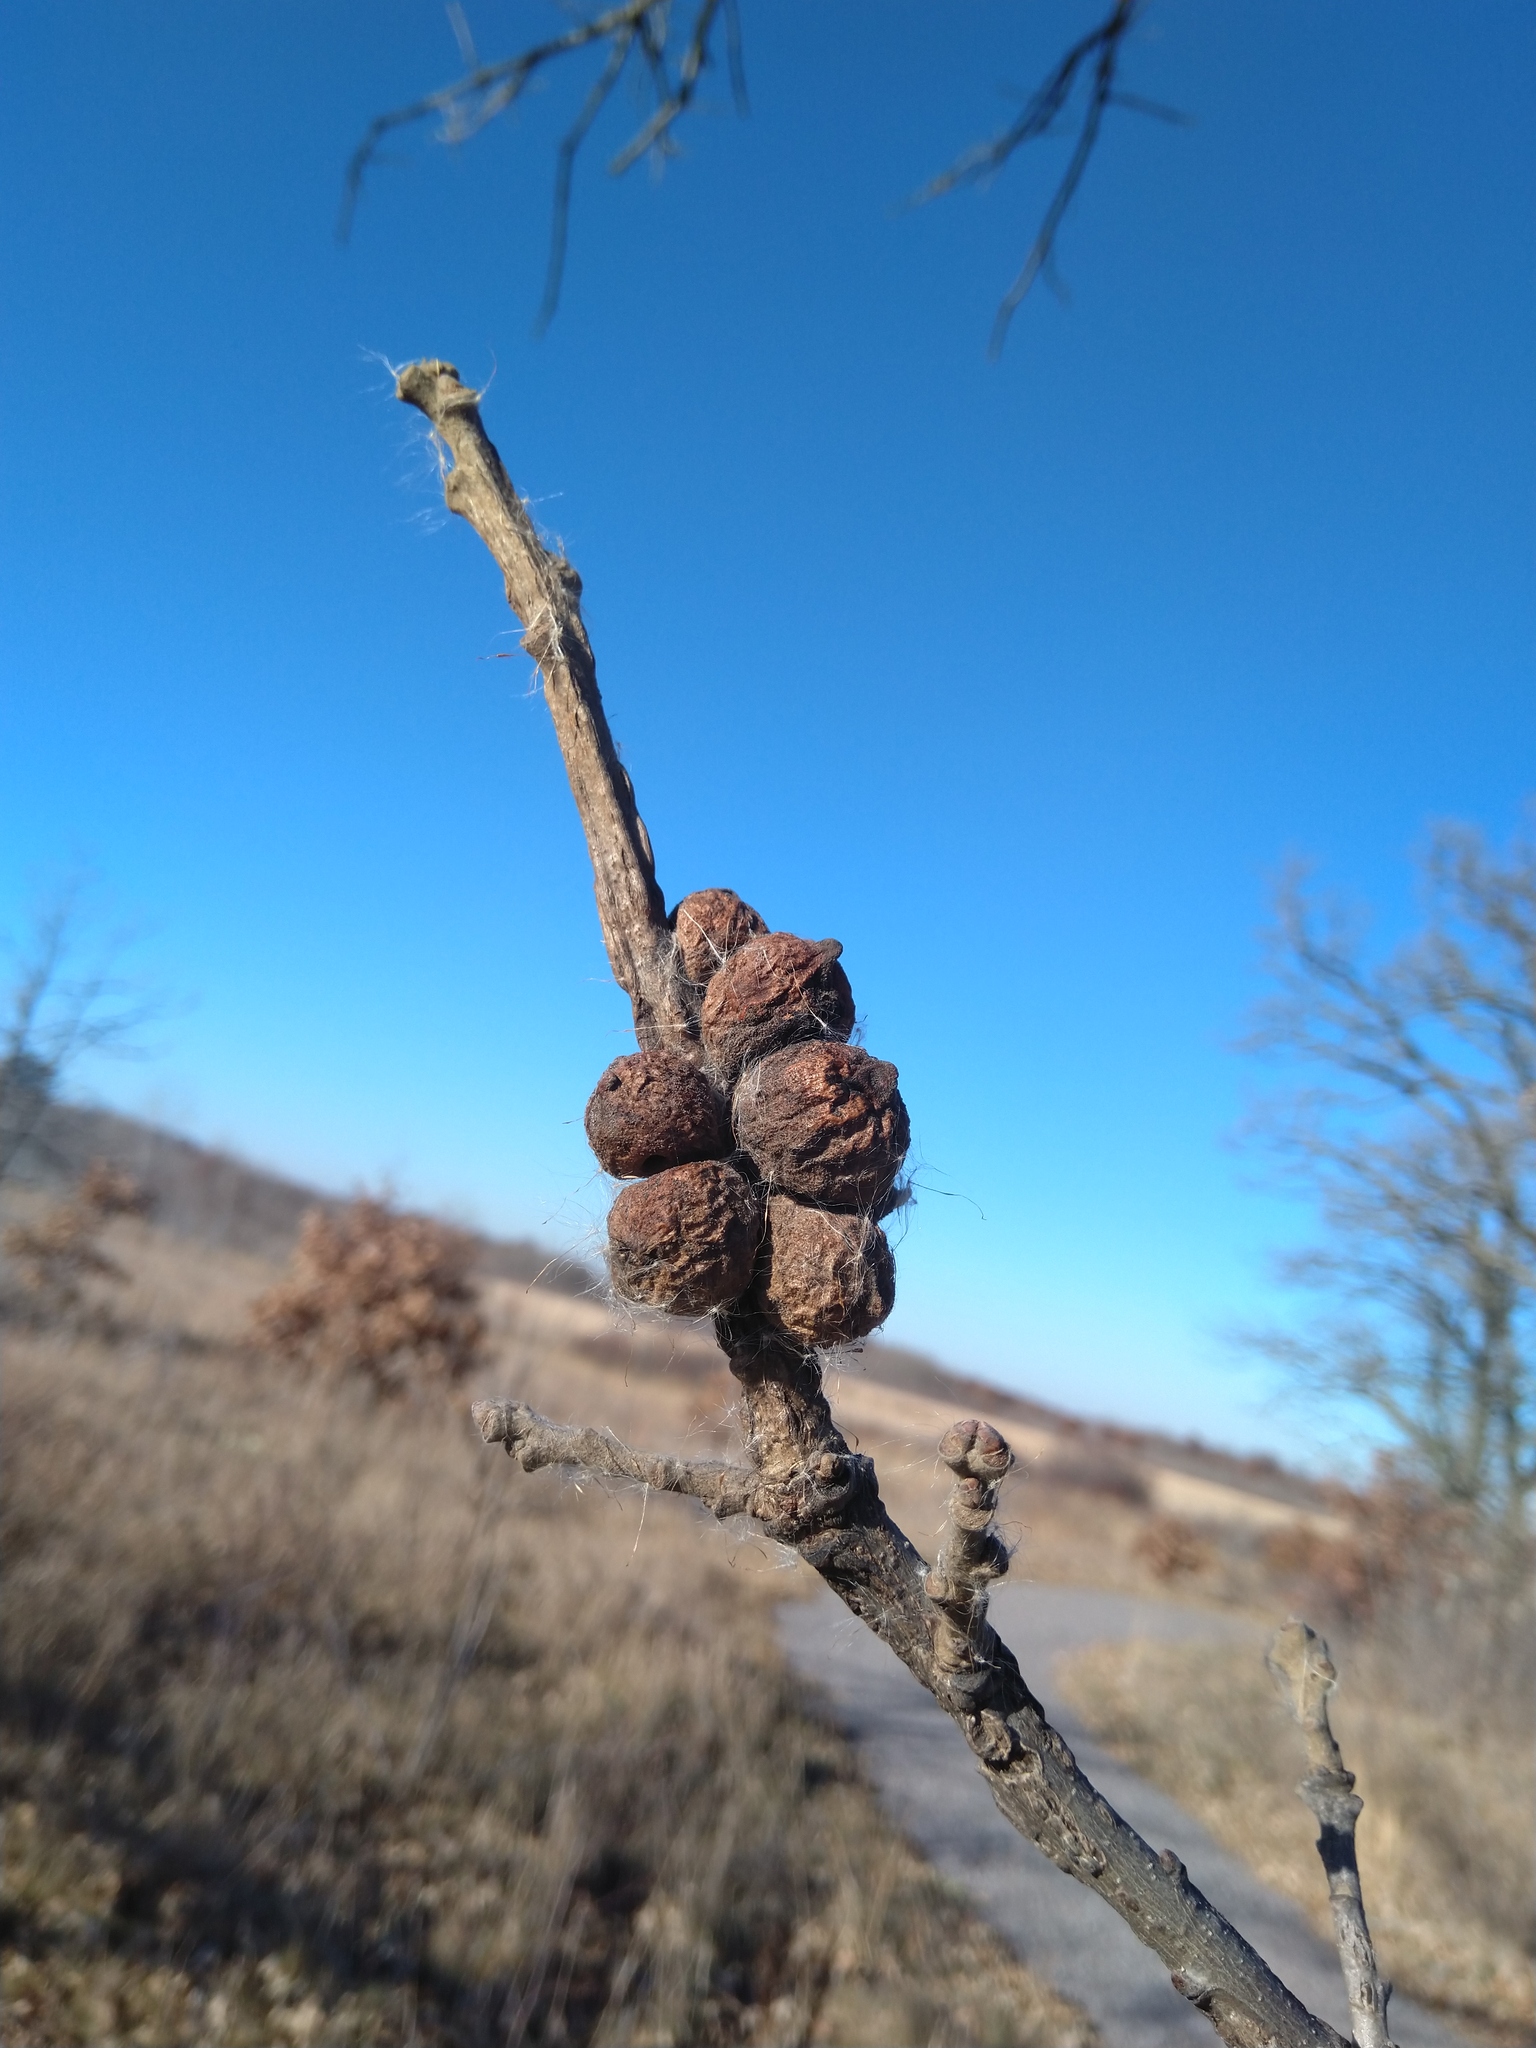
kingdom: Animalia
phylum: Arthropoda
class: Insecta
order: Hymenoptera
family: Cynipidae
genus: Disholcaspis
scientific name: Disholcaspis
